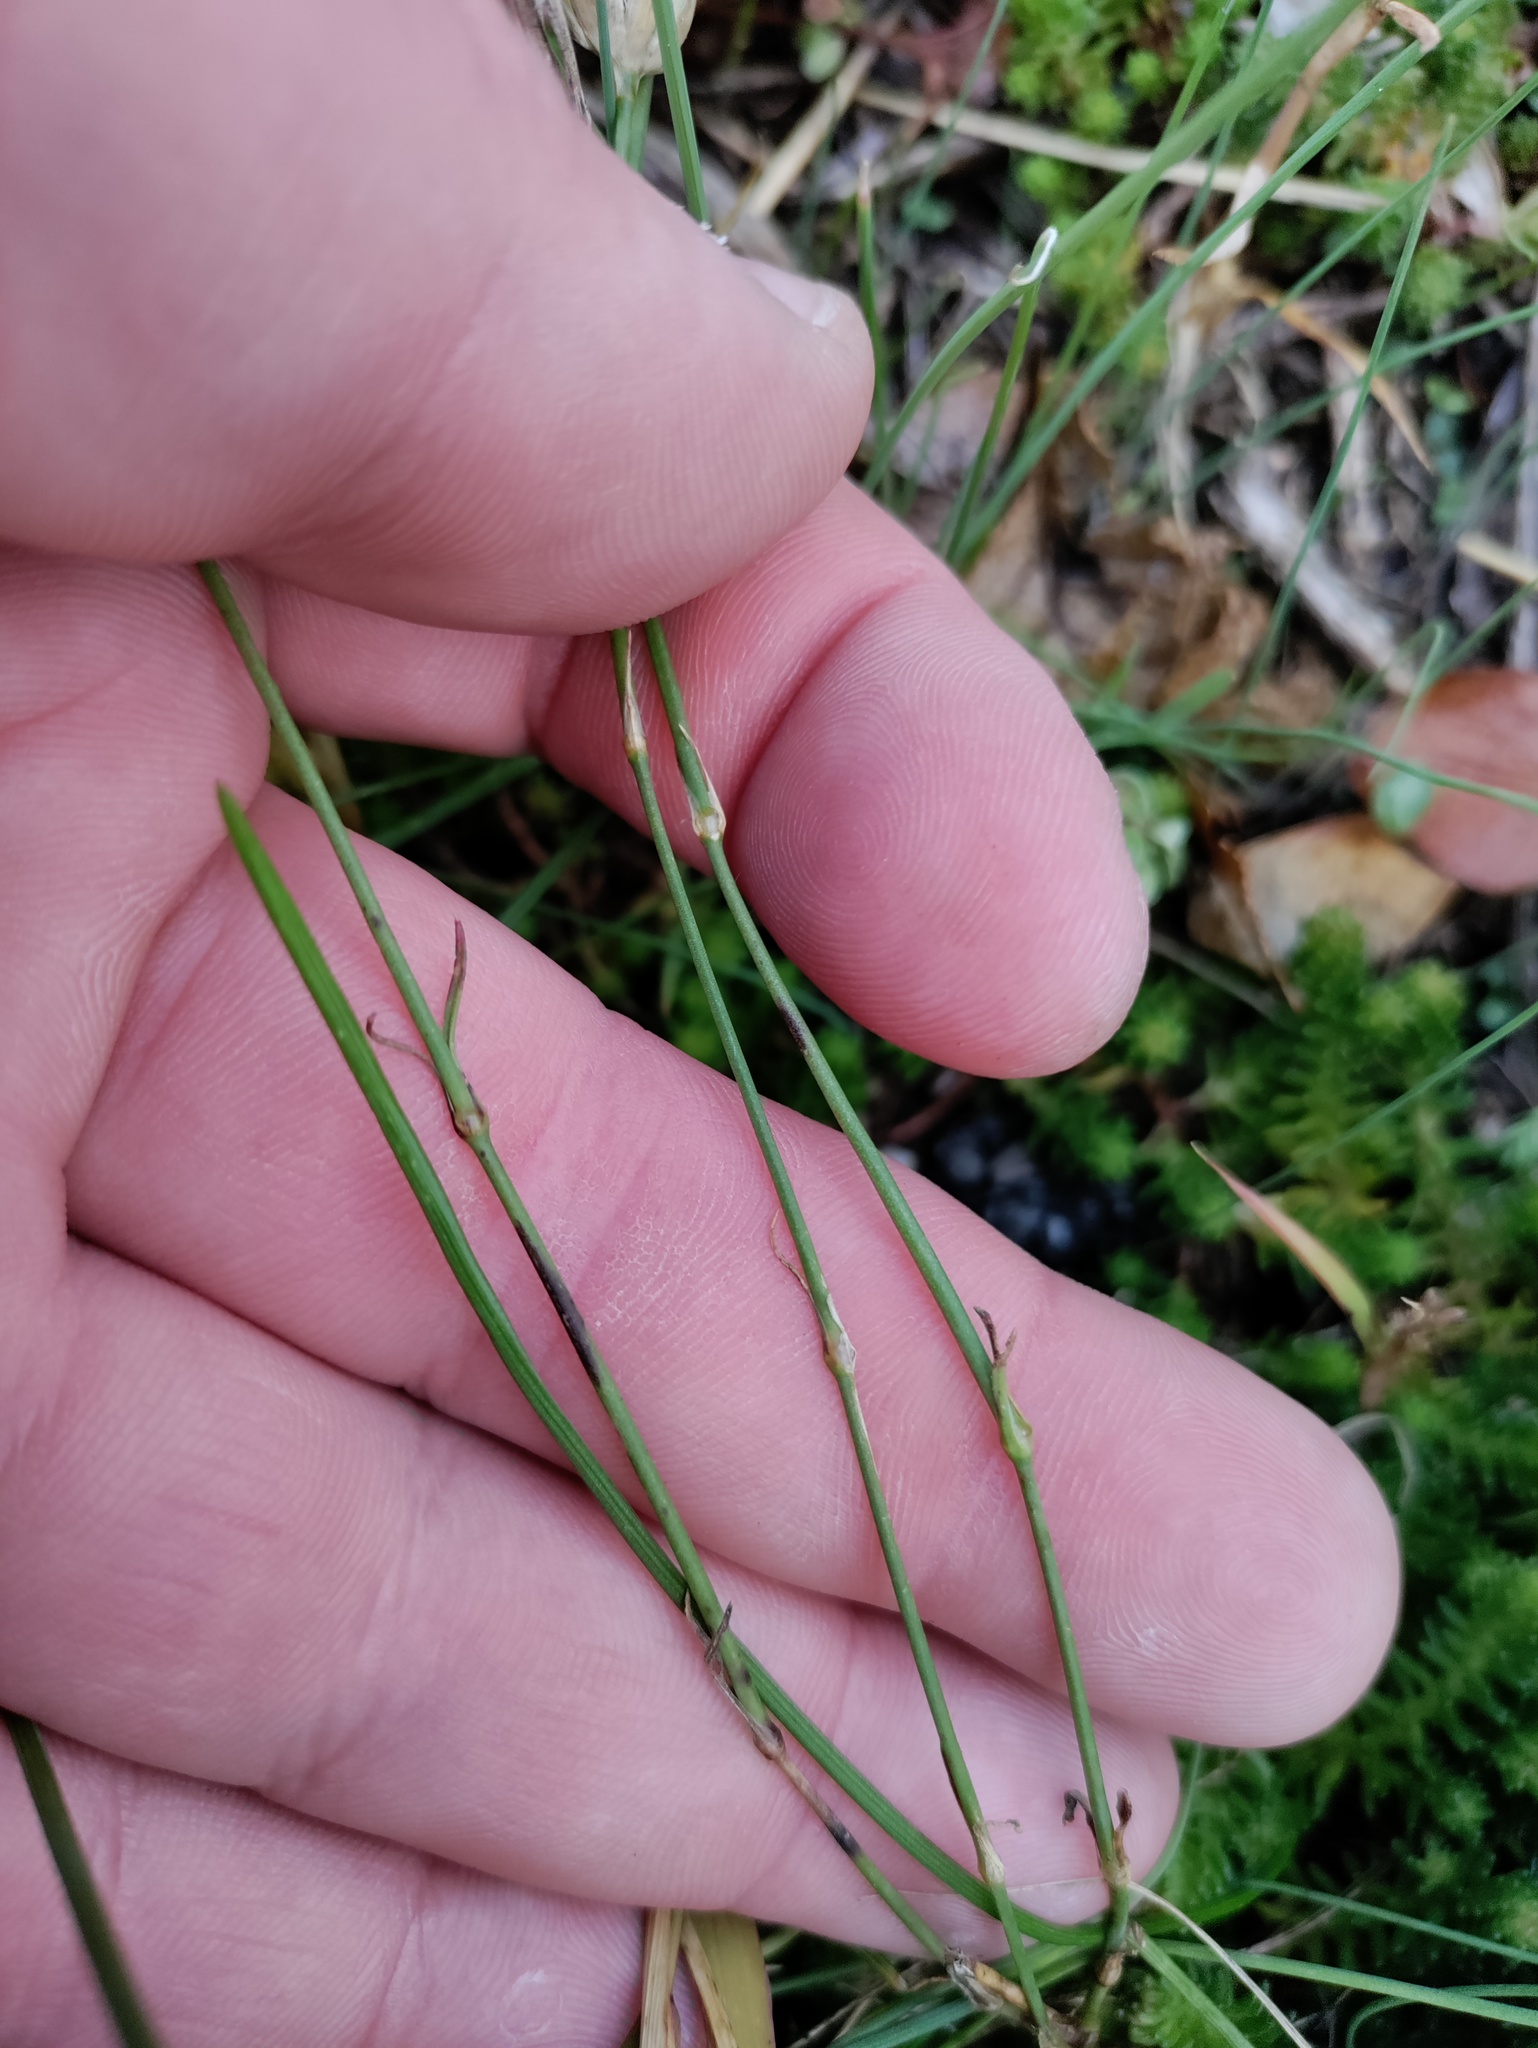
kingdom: Plantae
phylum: Tracheophyta
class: Magnoliopsida
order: Caryophyllales
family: Caryophyllaceae
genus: Petrorhagia
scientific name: Petrorhagia prolifera
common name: Proliferous pink
